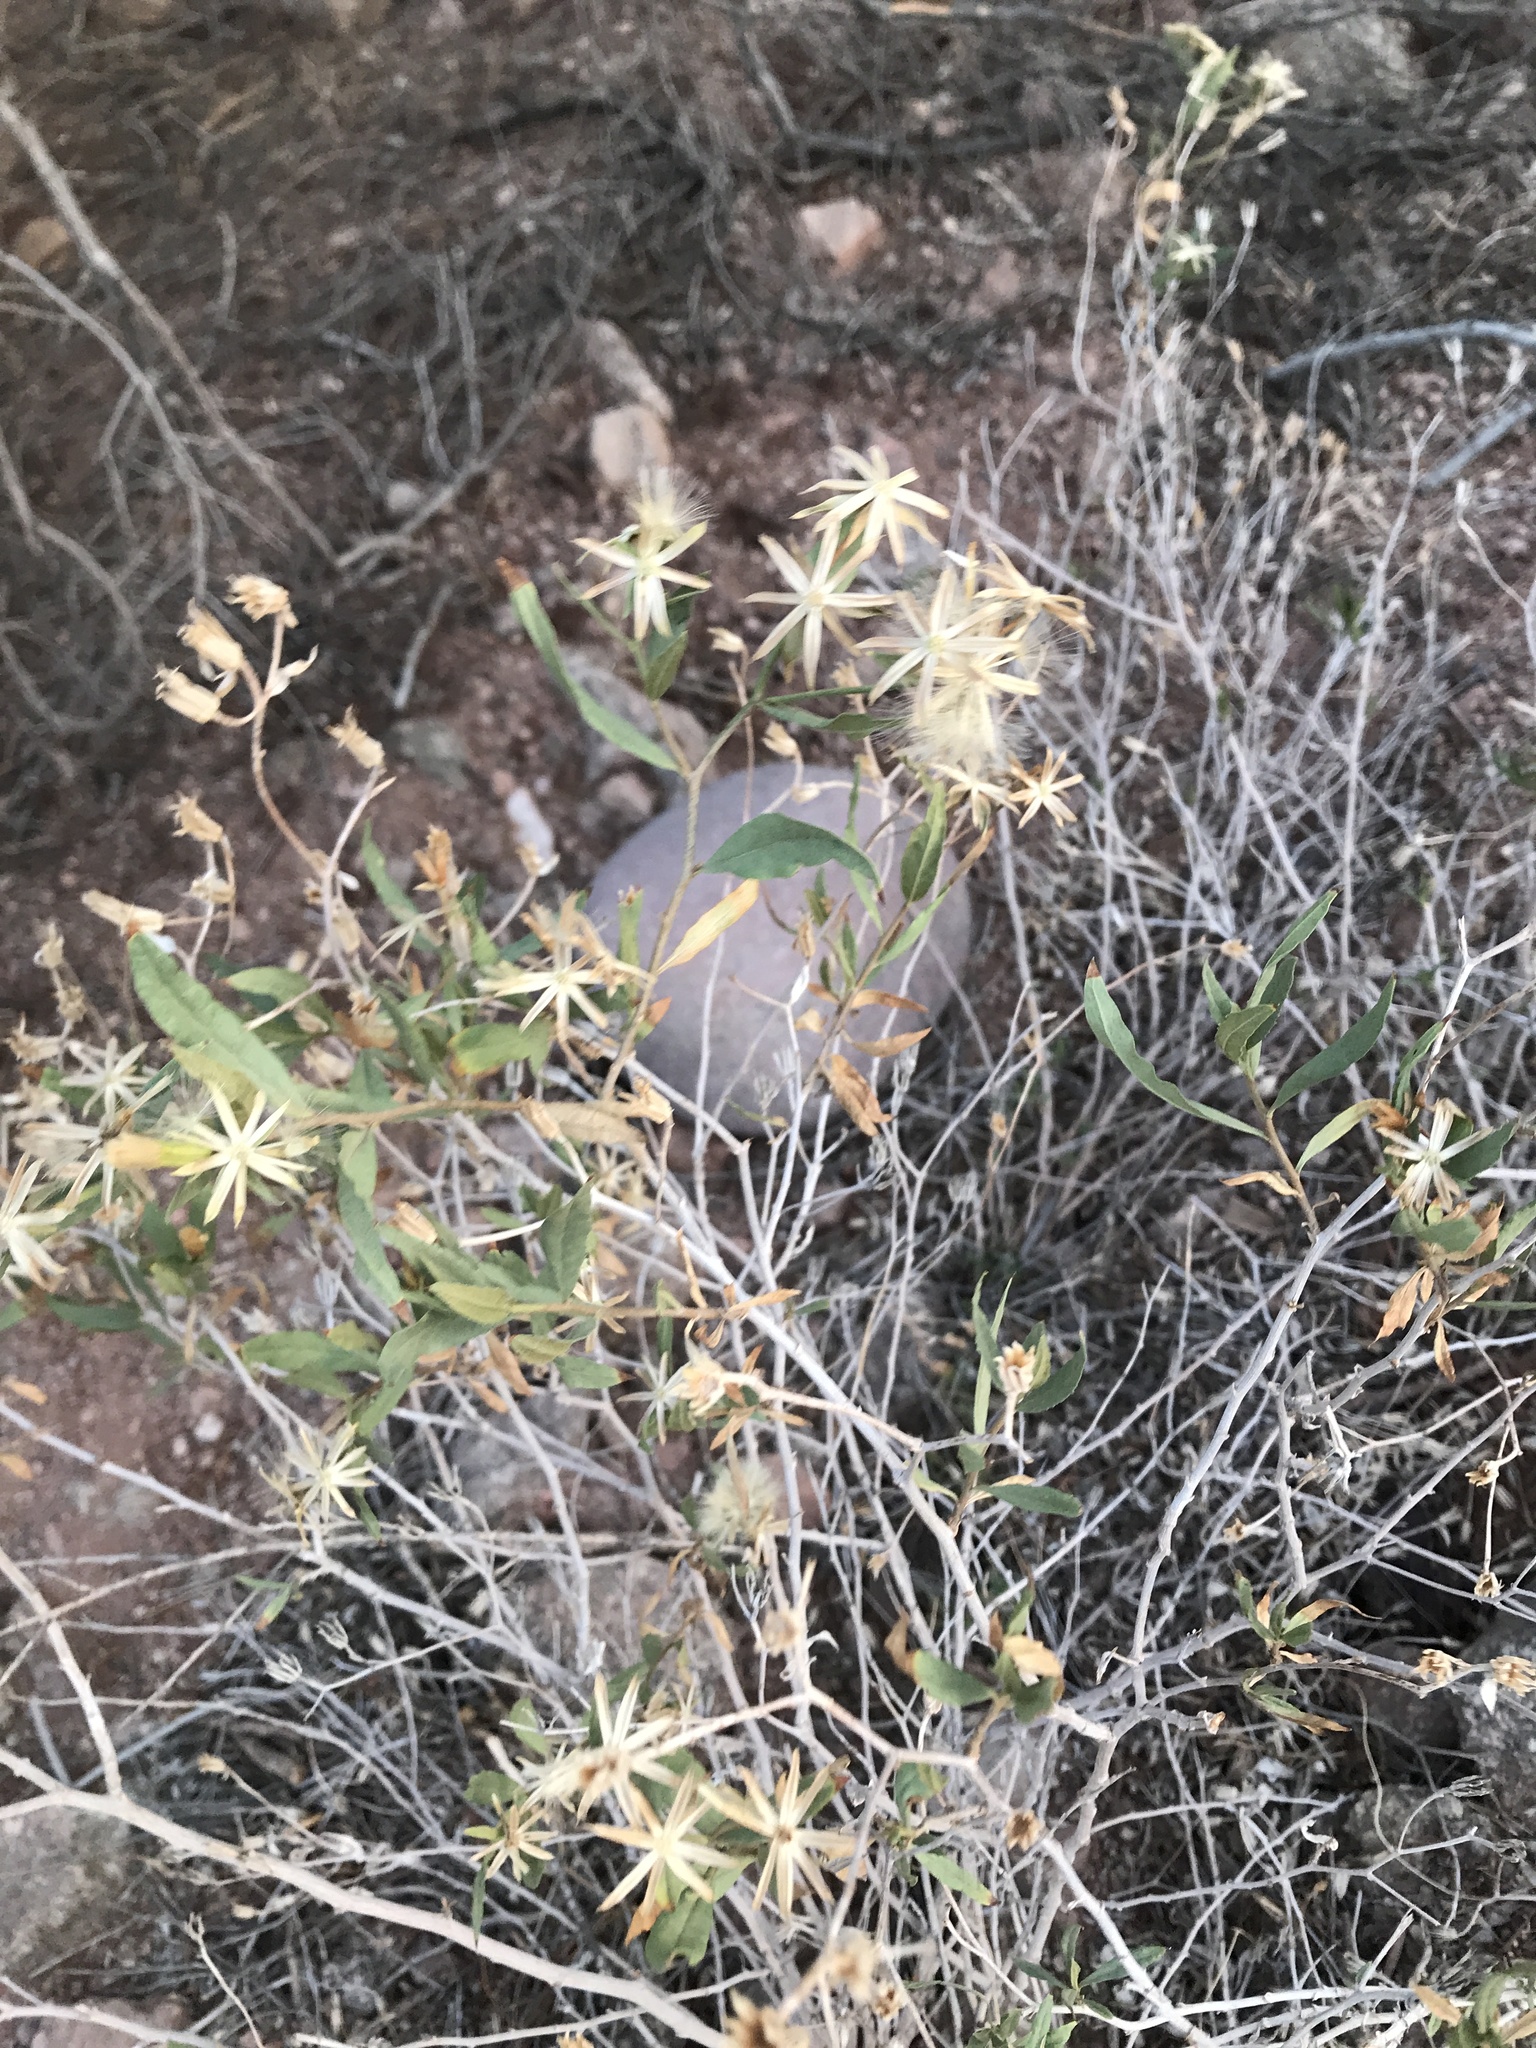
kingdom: Plantae
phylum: Tracheophyta
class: Magnoliopsida
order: Asterales
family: Asteraceae
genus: Trixis
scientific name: Trixis californica
